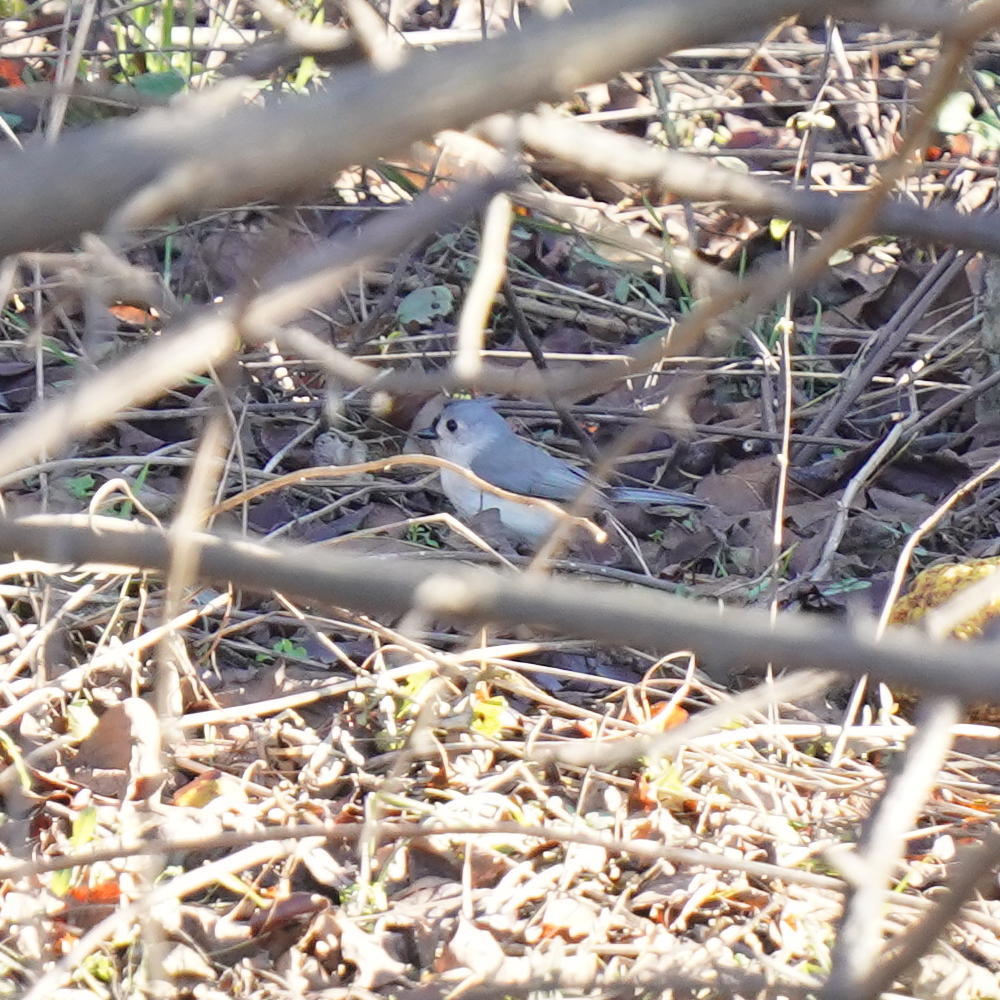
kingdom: Animalia
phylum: Chordata
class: Aves
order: Passeriformes
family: Paridae
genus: Baeolophus
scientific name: Baeolophus bicolor
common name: Tufted titmouse
